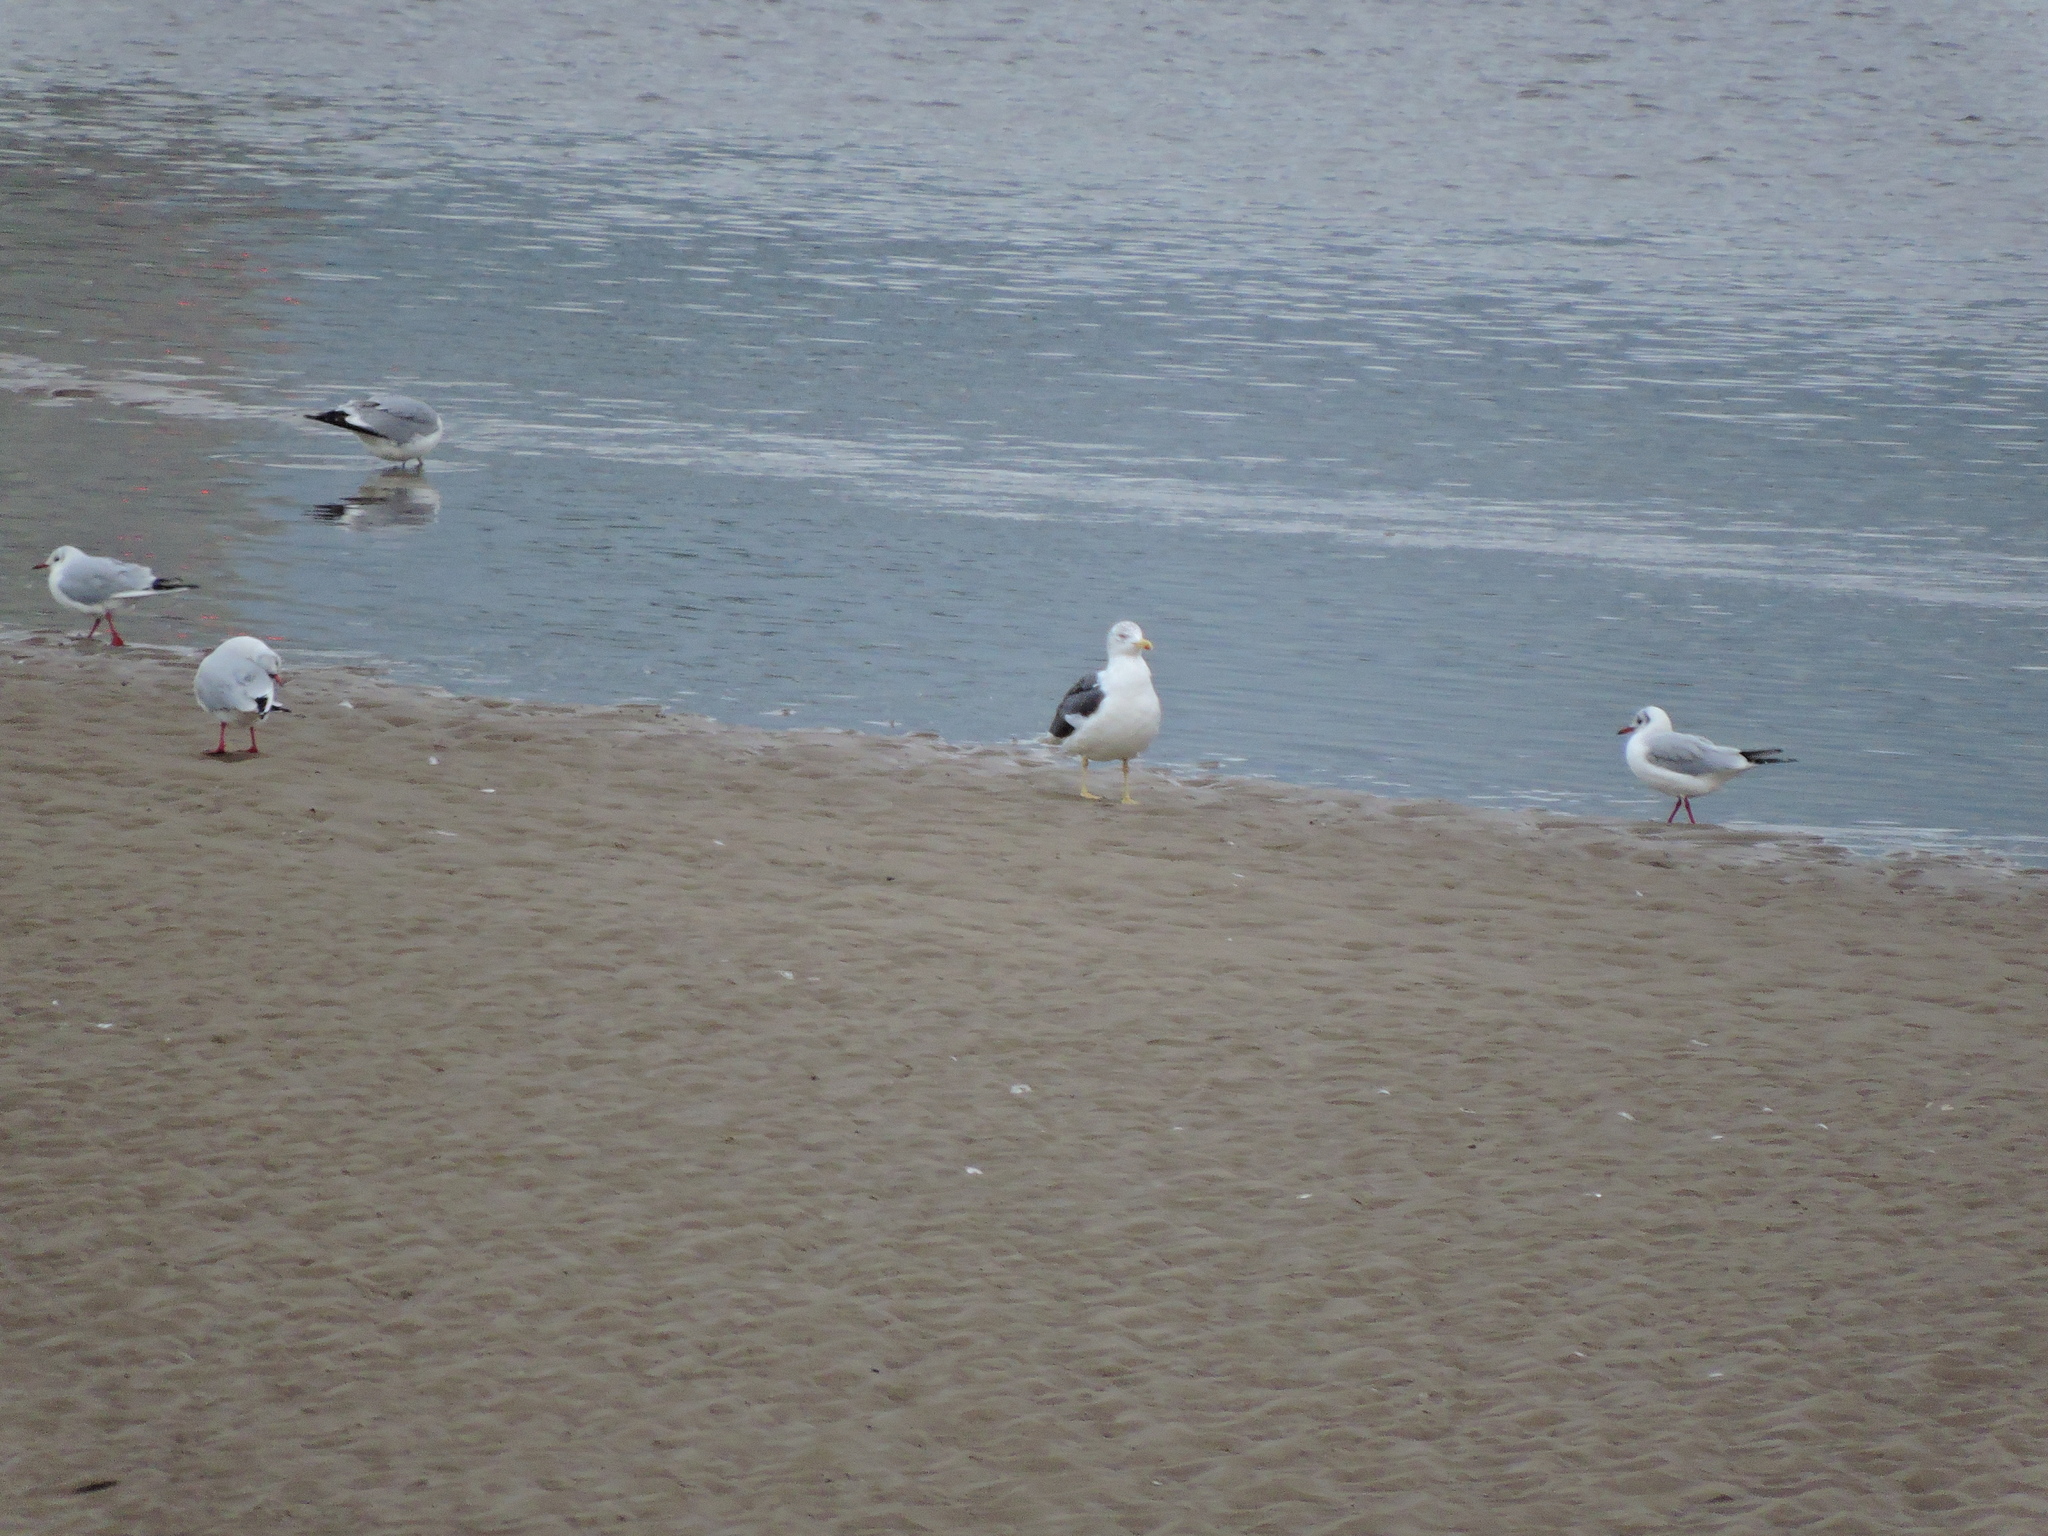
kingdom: Animalia
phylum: Chordata
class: Aves
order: Charadriiformes
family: Laridae
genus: Larus
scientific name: Larus fuscus
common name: Lesser black-backed gull
